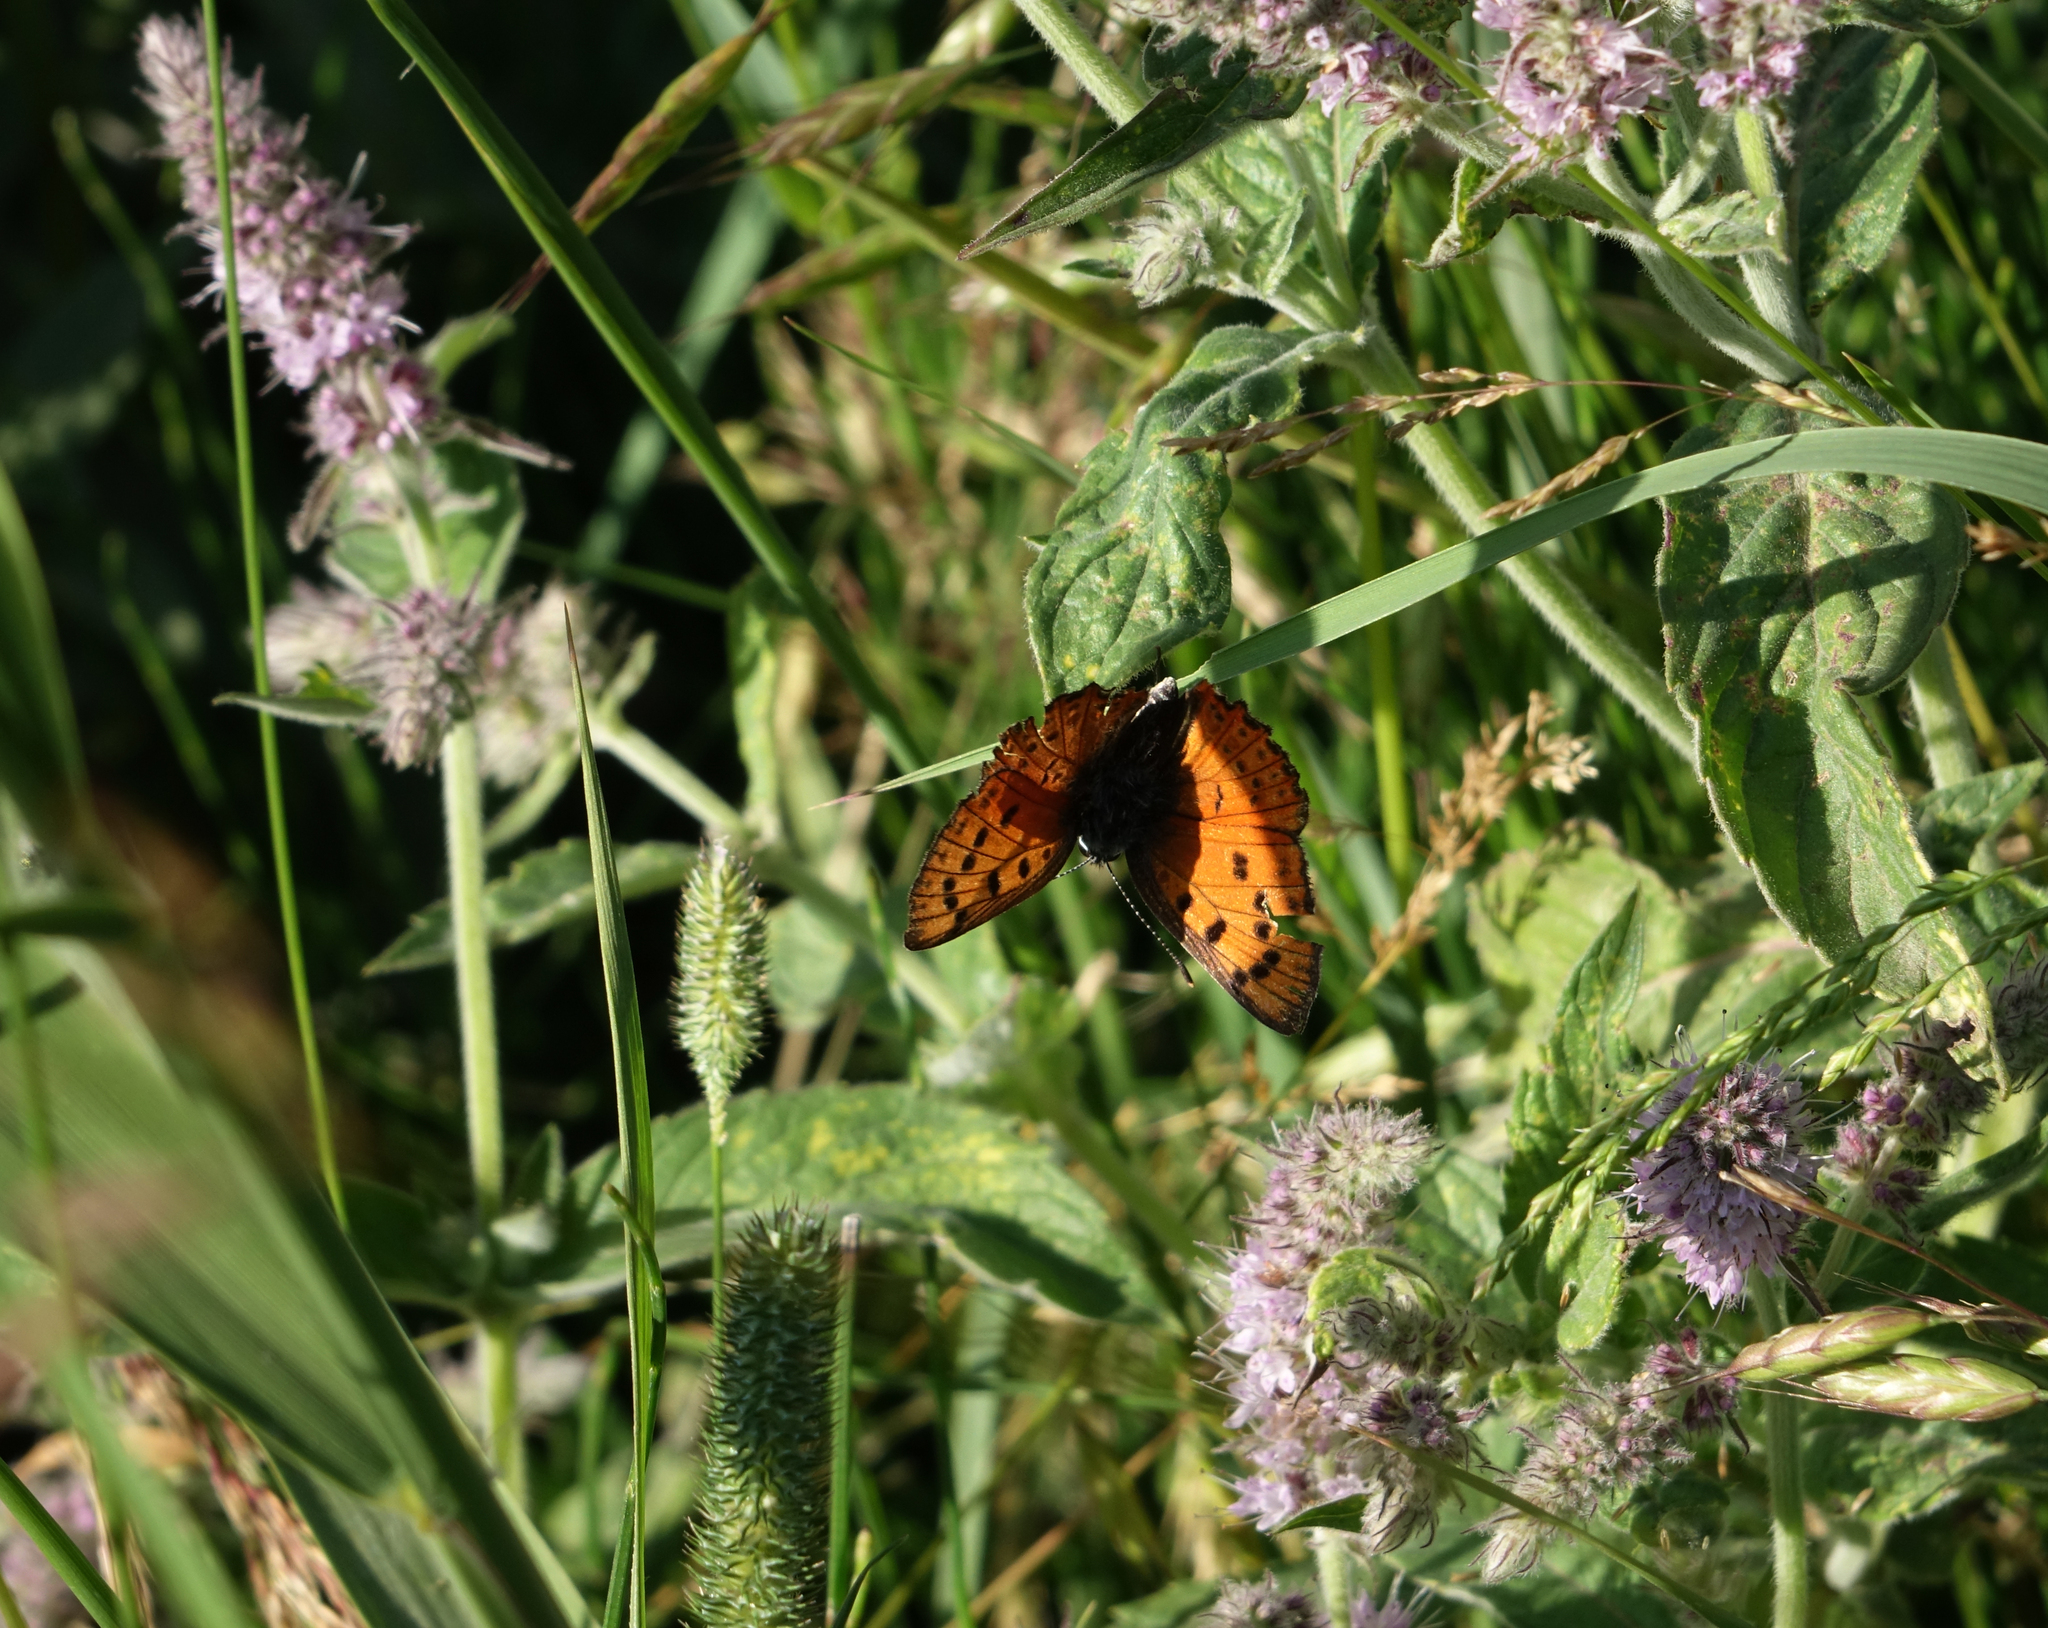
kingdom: Animalia
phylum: Arthropoda
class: Insecta
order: Lepidoptera
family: Lycaenidae
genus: Lycaena
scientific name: Lycaena alciphron
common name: Purple-shot copper
